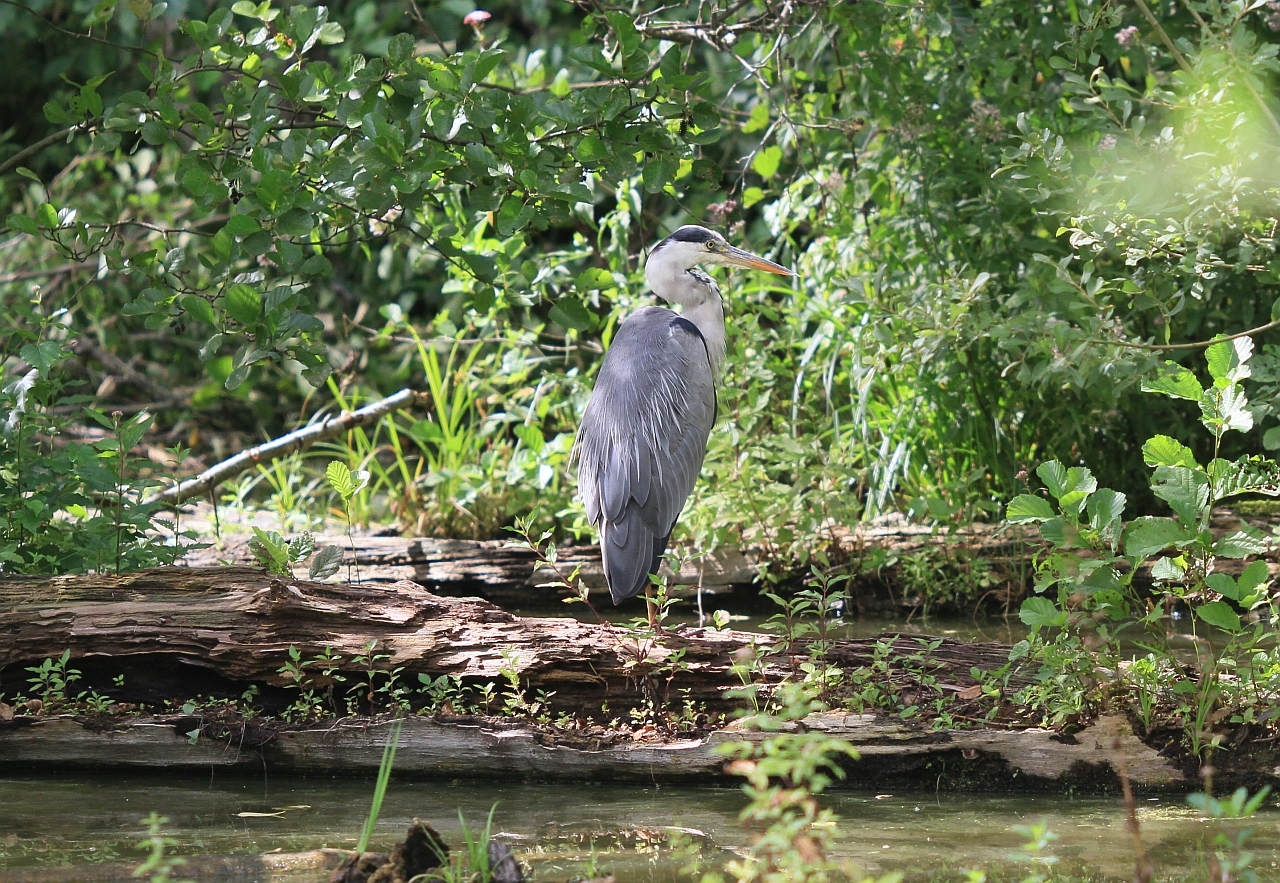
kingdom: Animalia
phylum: Chordata
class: Aves
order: Pelecaniformes
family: Ardeidae
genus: Ardea
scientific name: Ardea cinerea
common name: Grey heron
